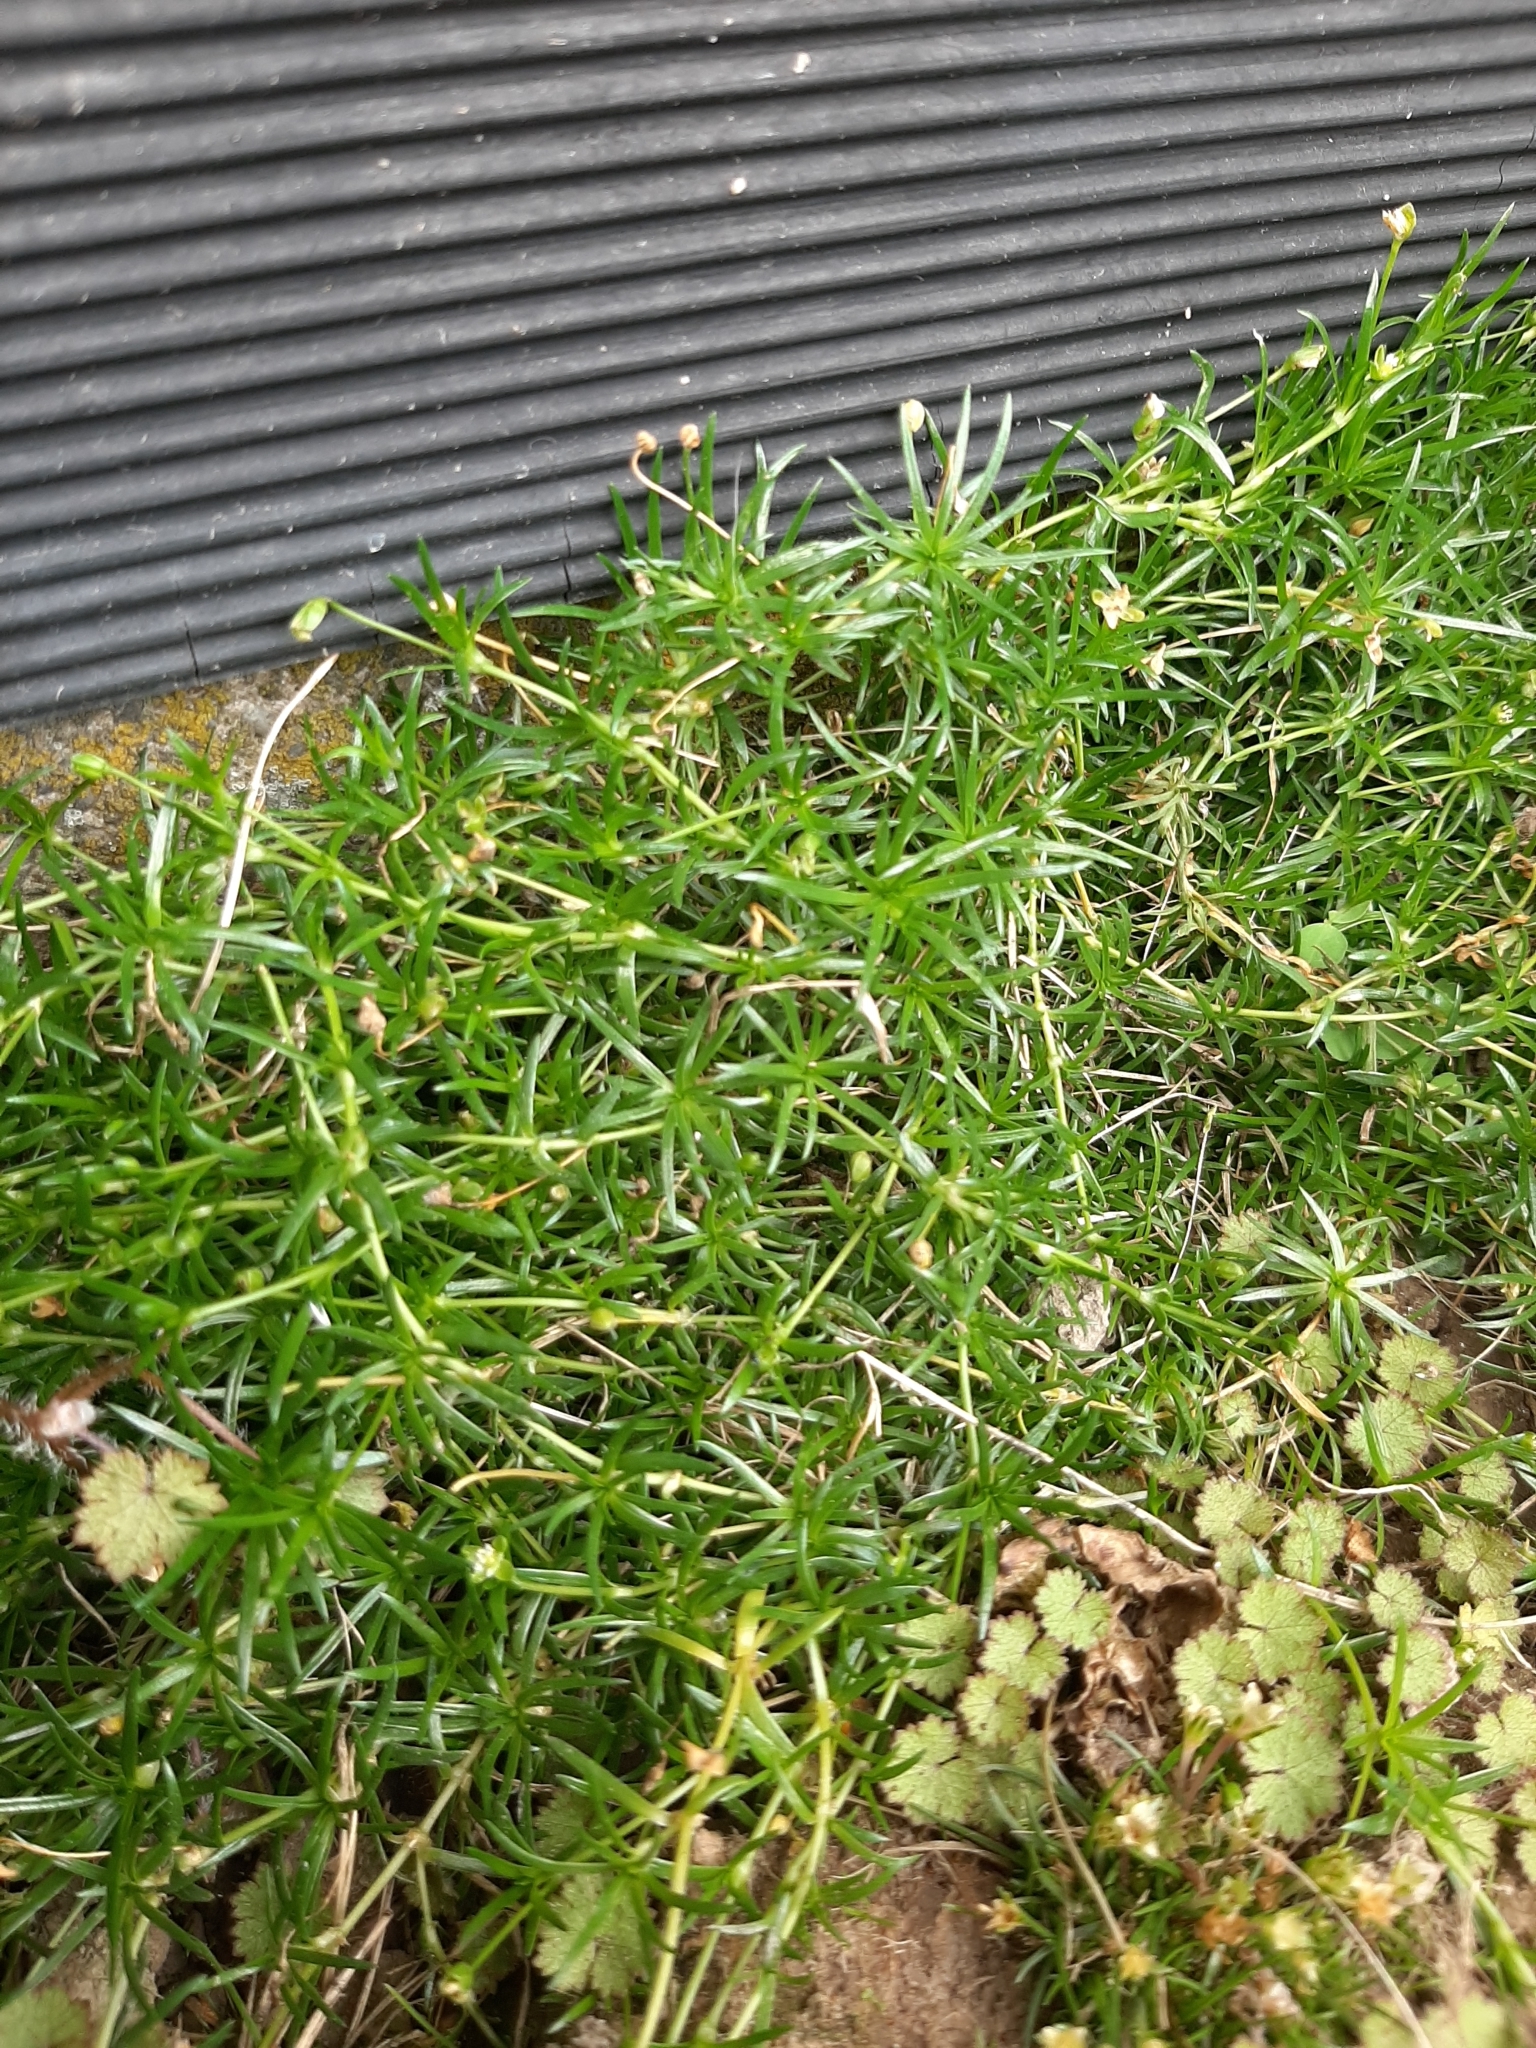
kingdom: Plantae
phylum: Tracheophyta
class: Magnoliopsida
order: Caryophyllales
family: Caryophyllaceae
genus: Sagina
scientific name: Sagina procumbens
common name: Procumbent pearlwort
